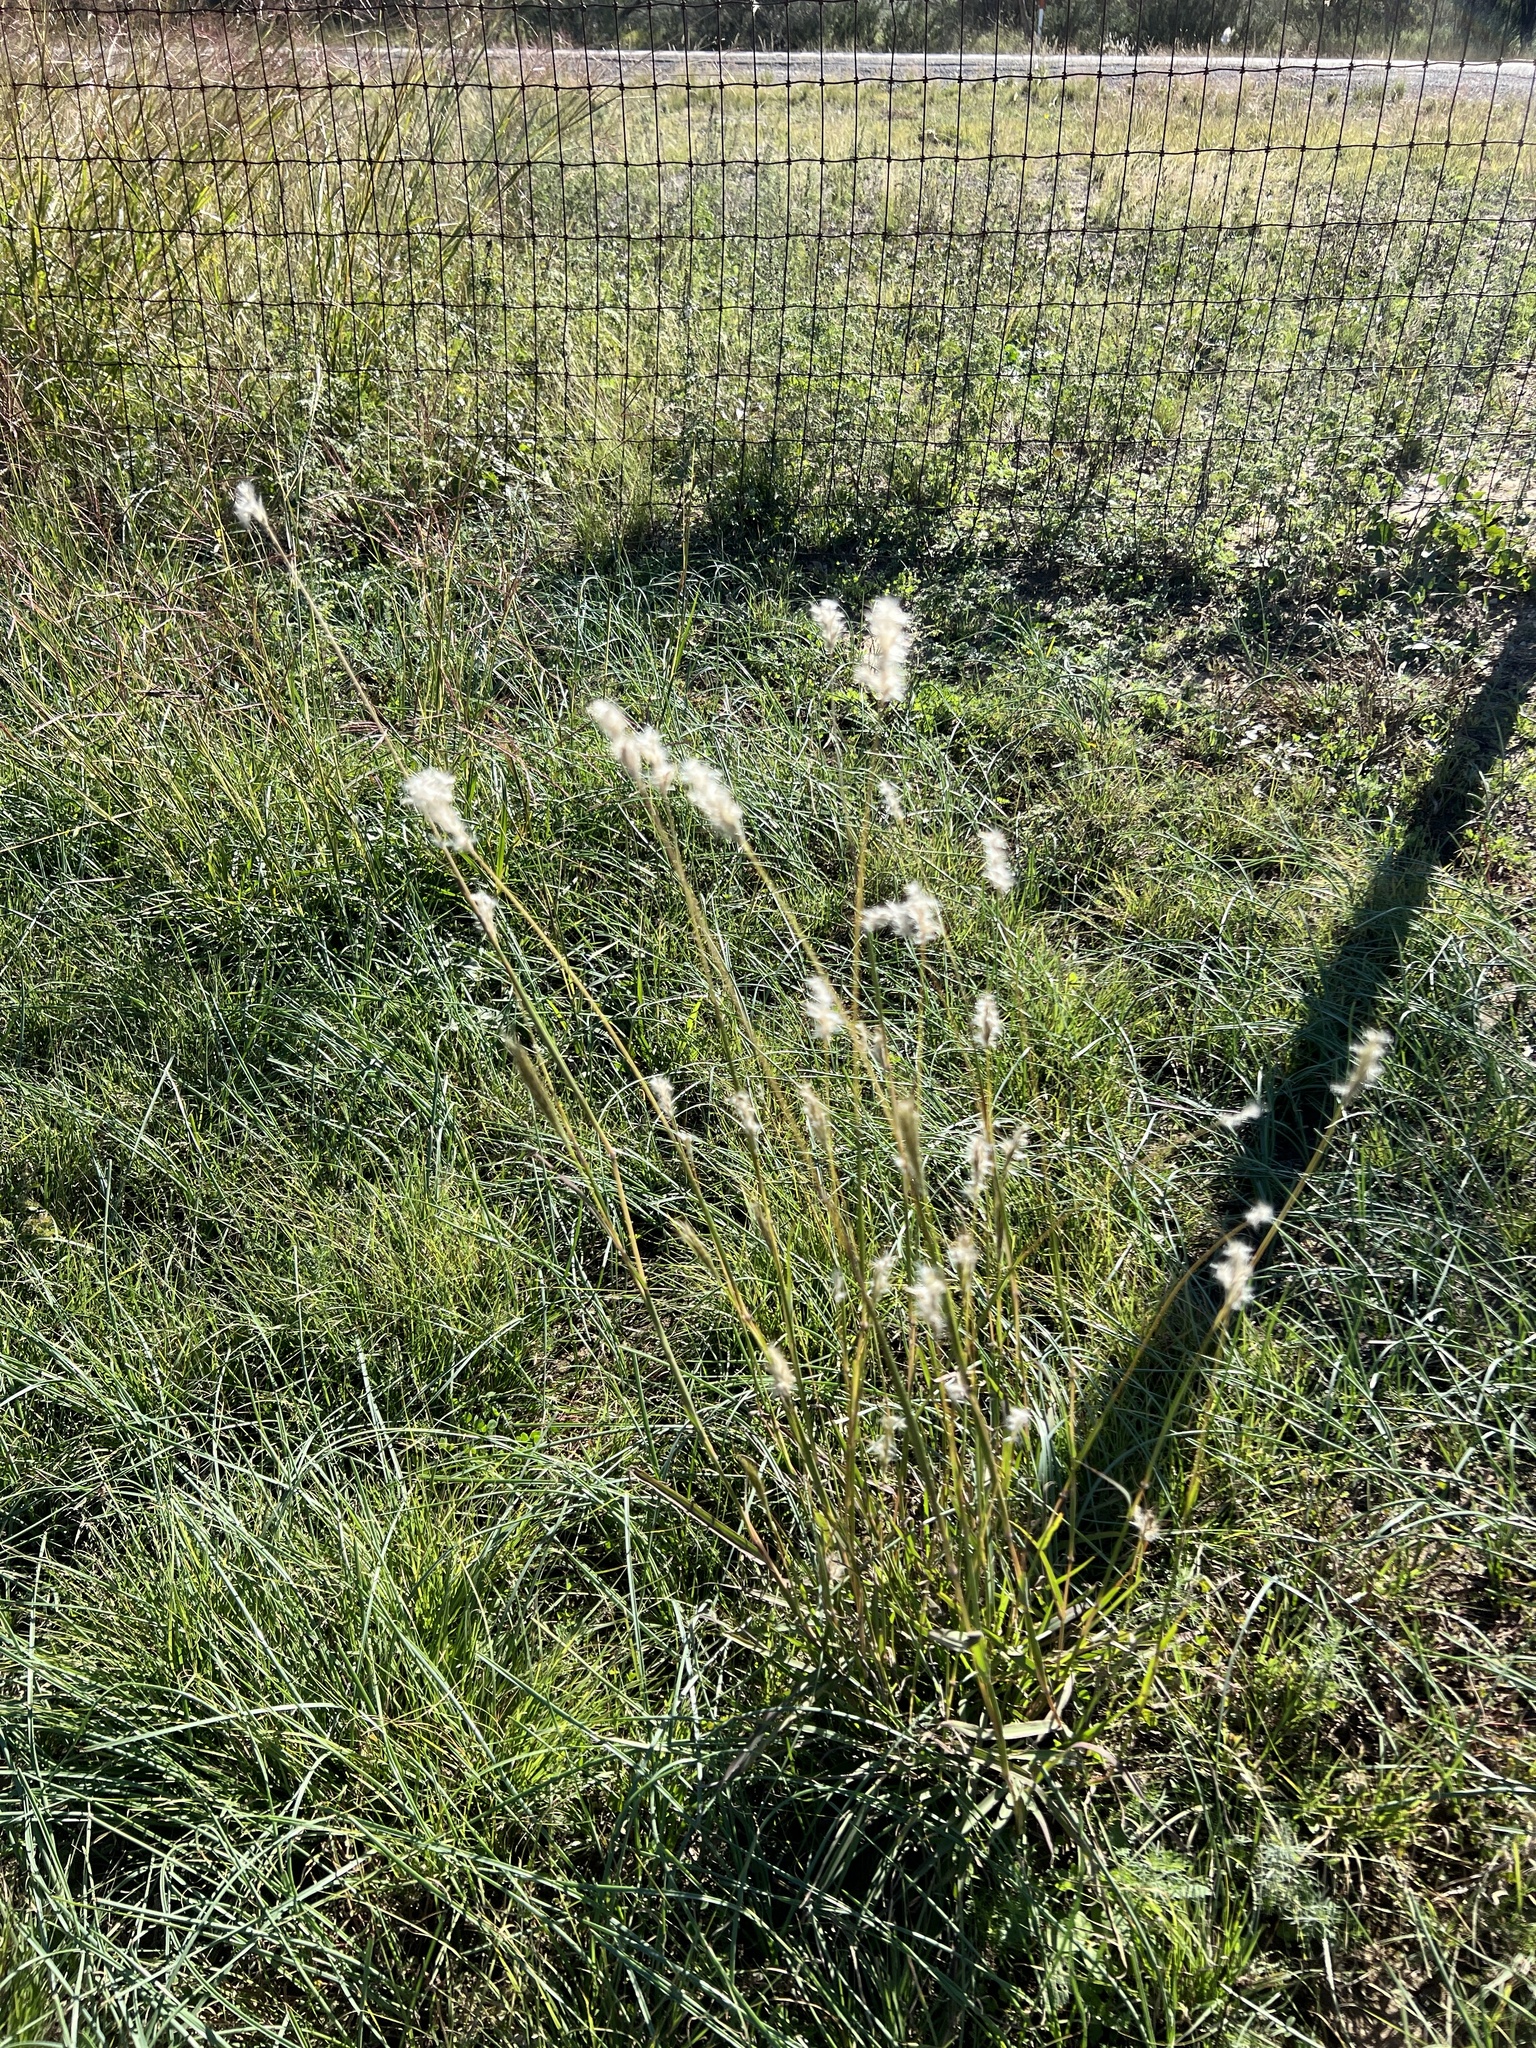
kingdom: Plantae
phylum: Tracheophyta
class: Liliopsida
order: Poales
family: Poaceae
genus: Bothriochloa
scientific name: Bothriochloa barbinodis
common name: Cane bluestem
